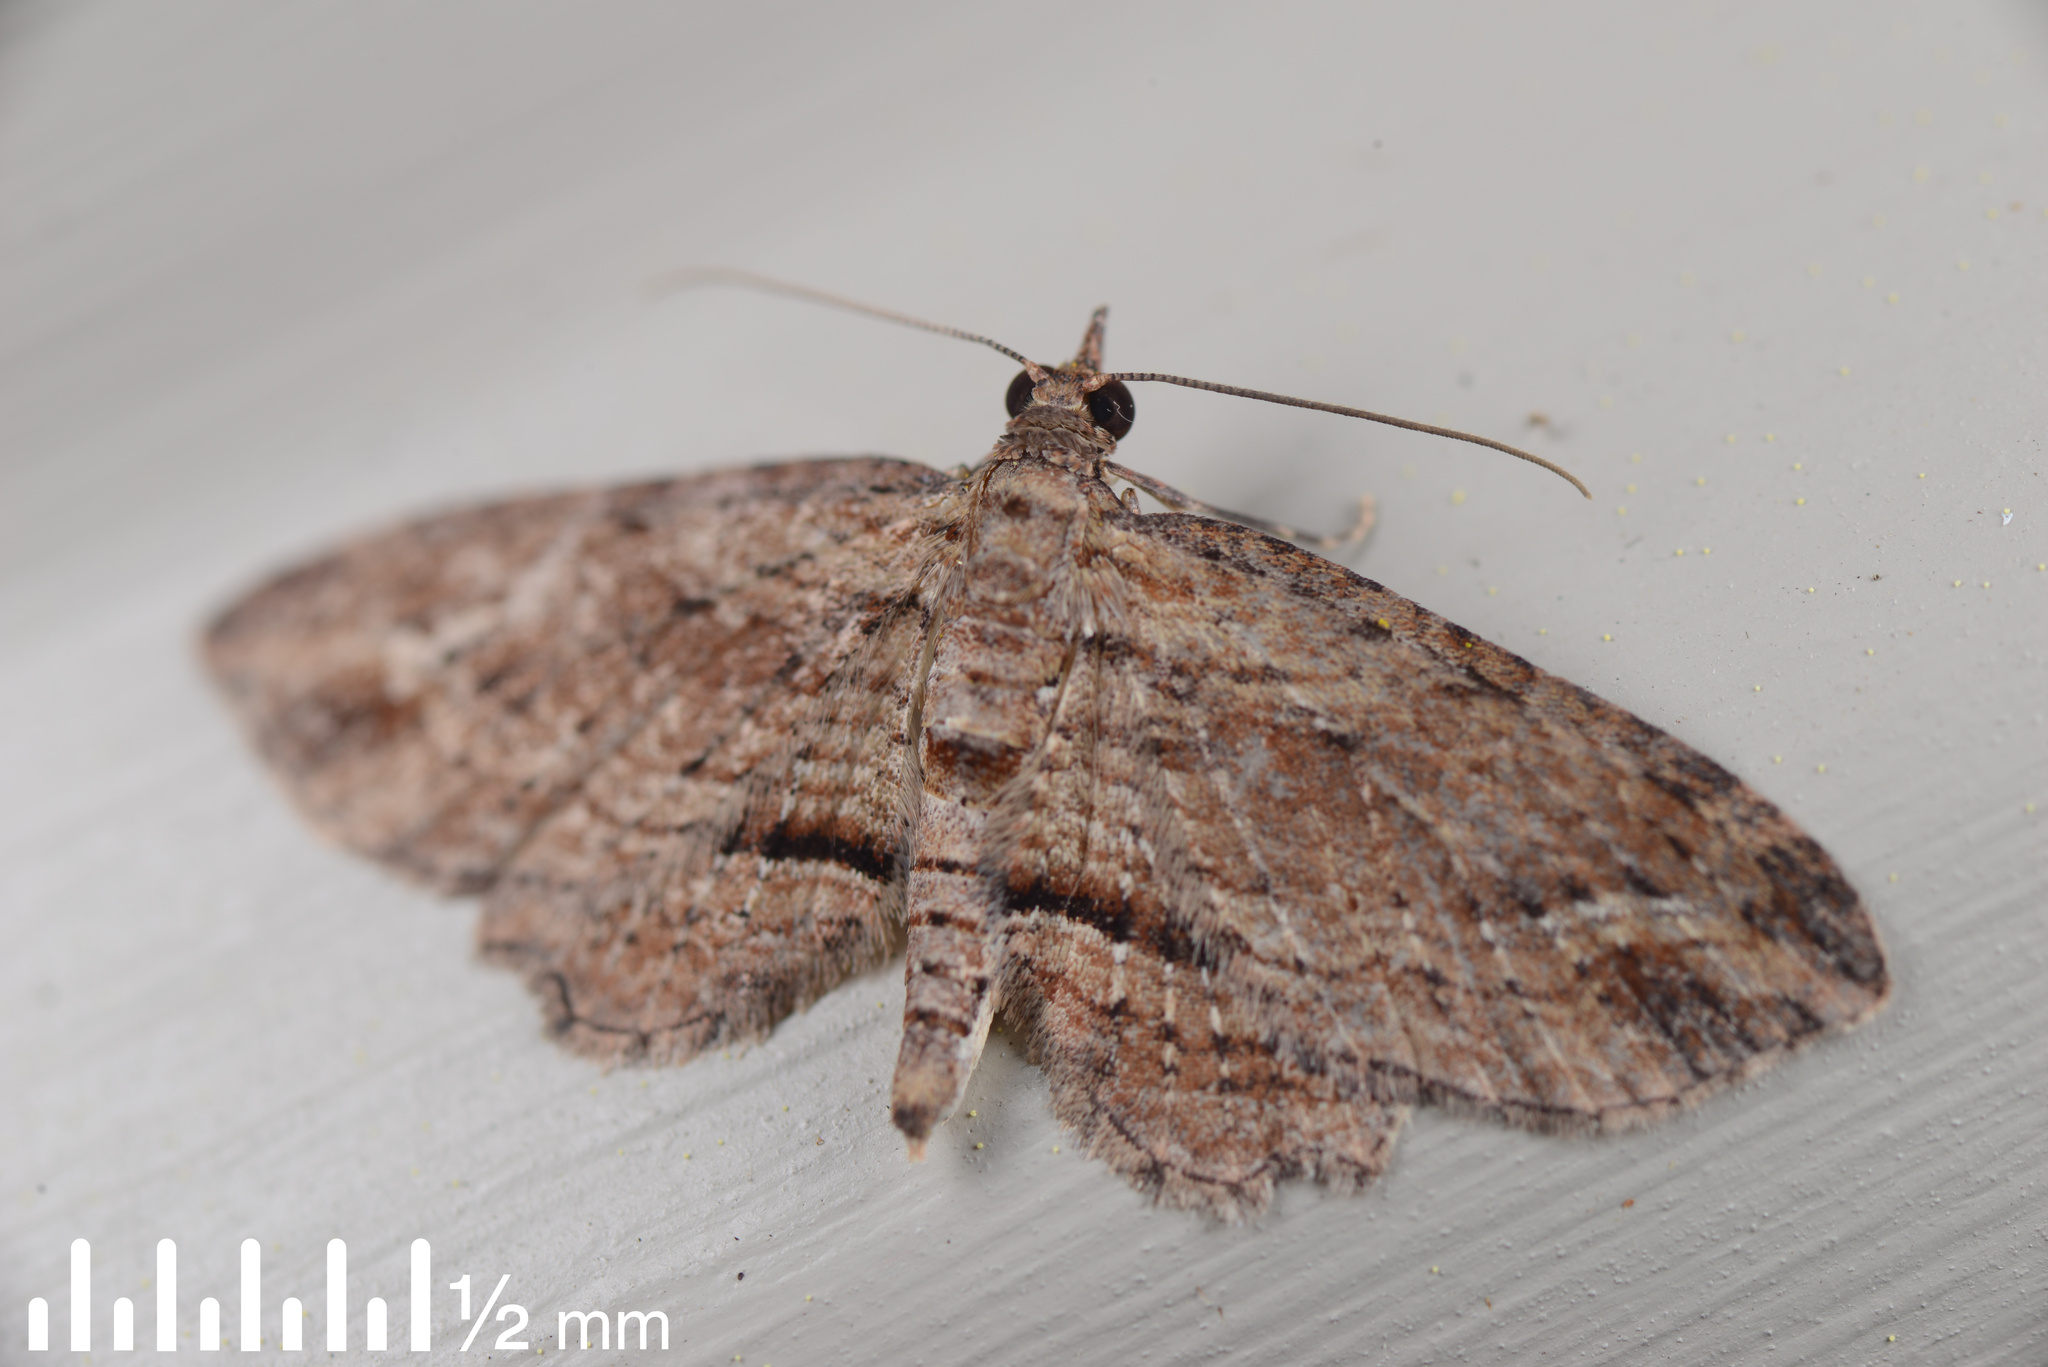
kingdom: Animalia
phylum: Arthropoda
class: Insecta
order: Lepidoptera
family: Geometridae
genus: Chloroclystis
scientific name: Chloroclystis filata
